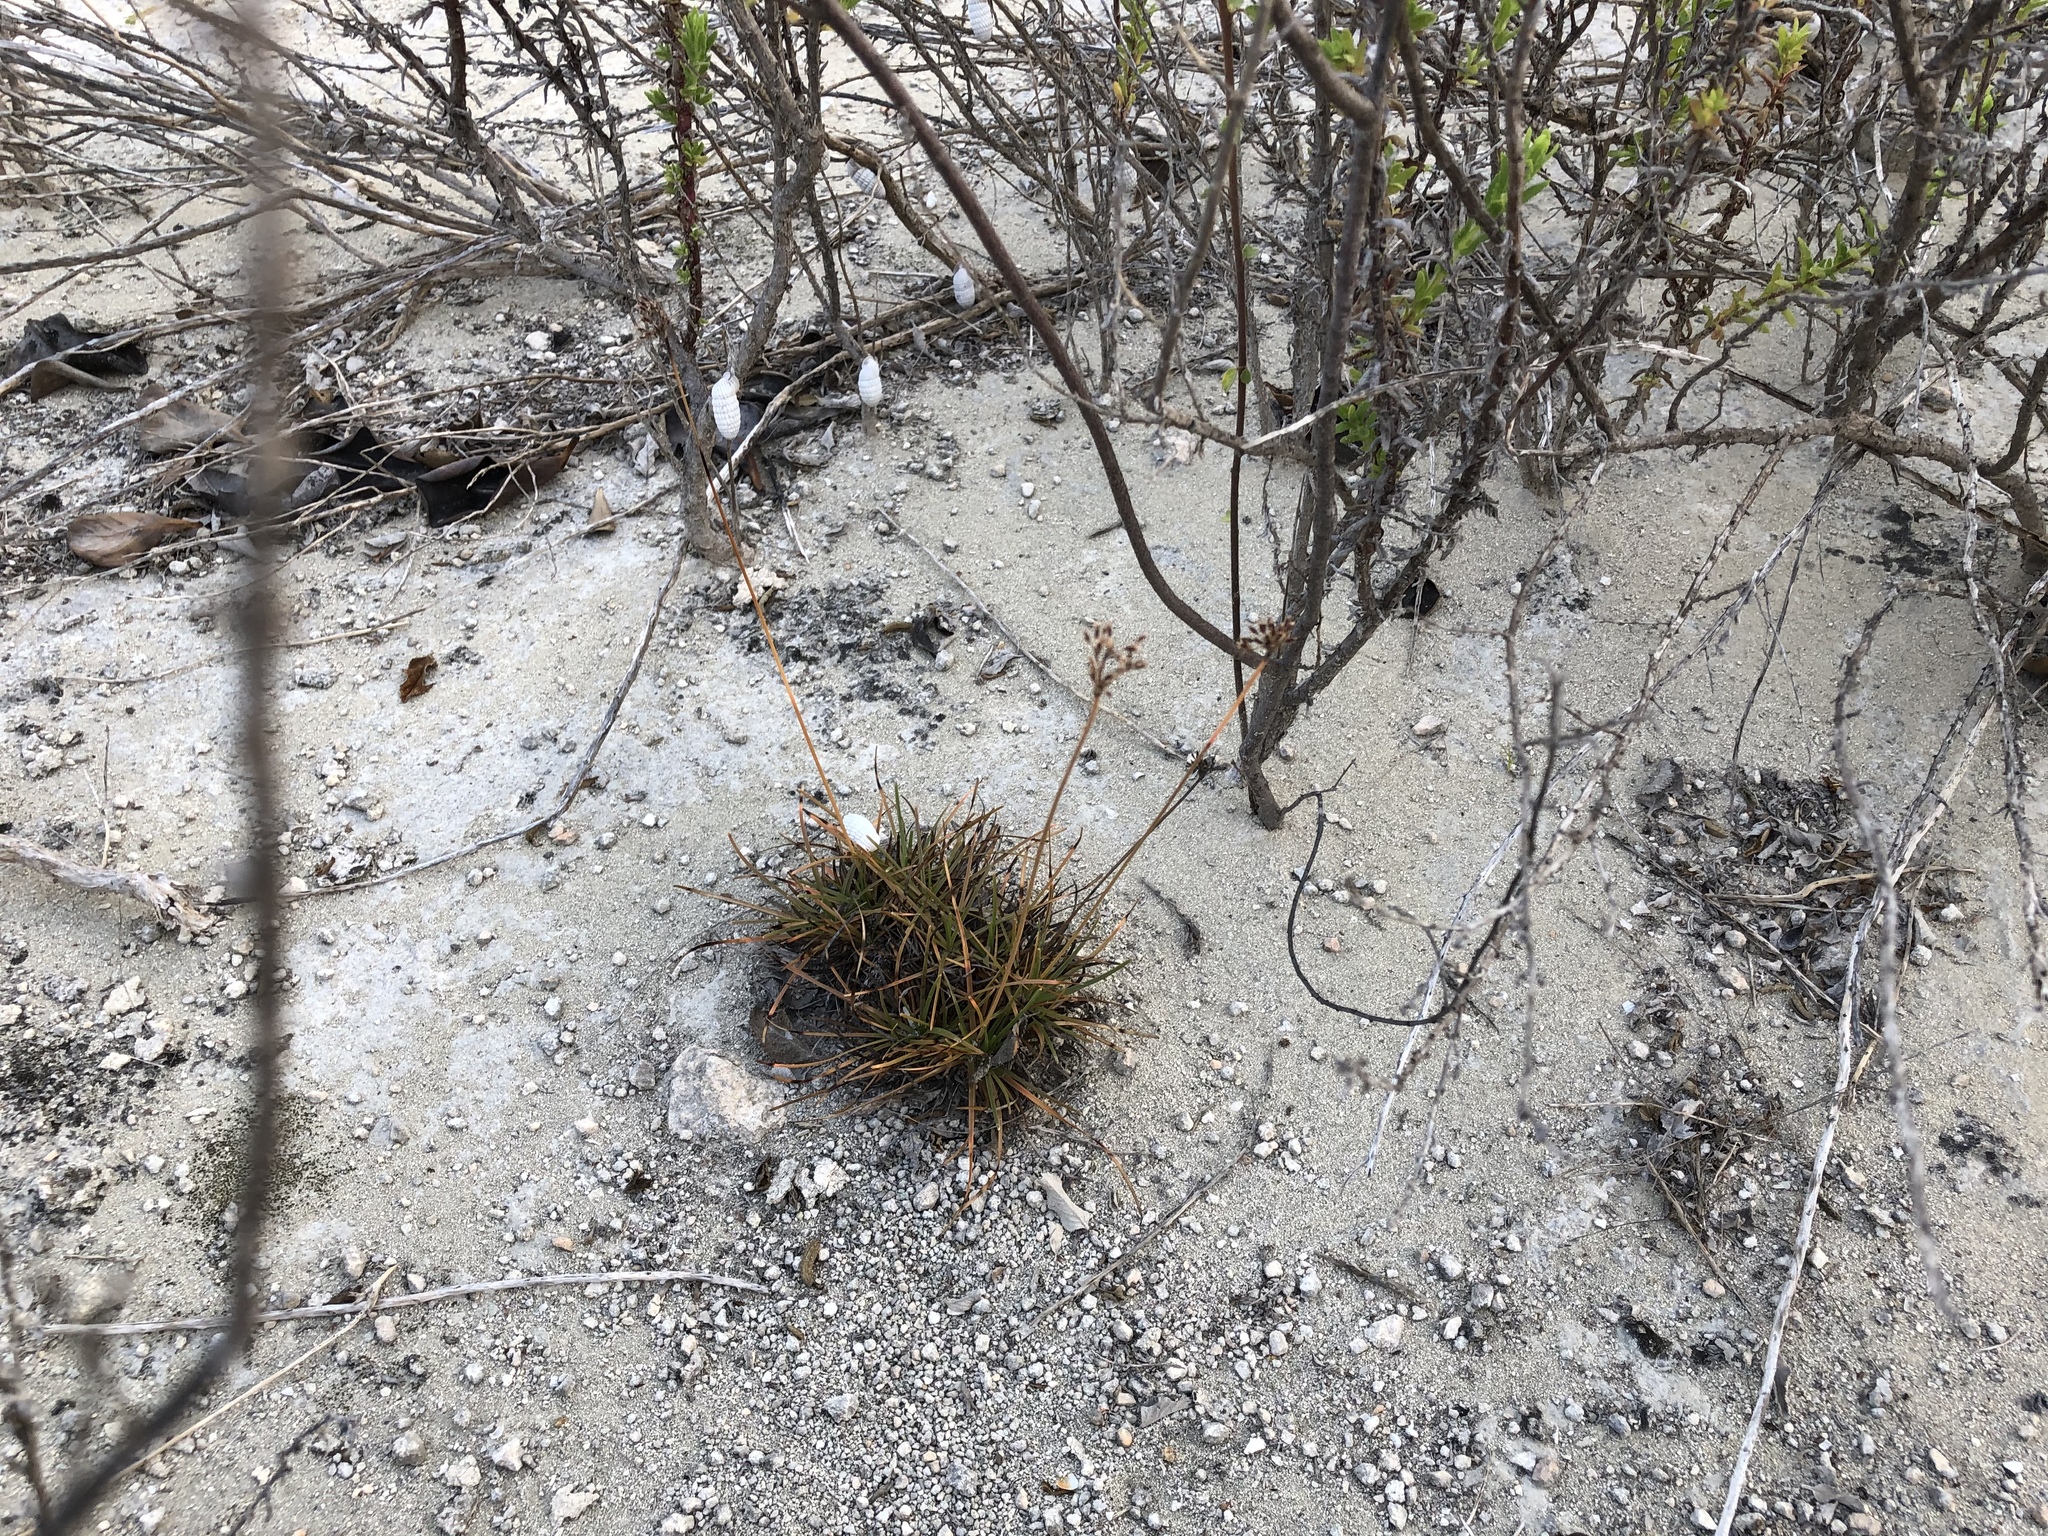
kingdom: Plantae
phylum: Tracheophyta
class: Liliopsida
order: Poales
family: Cyperaceae
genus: Fimbristylis
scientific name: Fimbristylis cymosa
